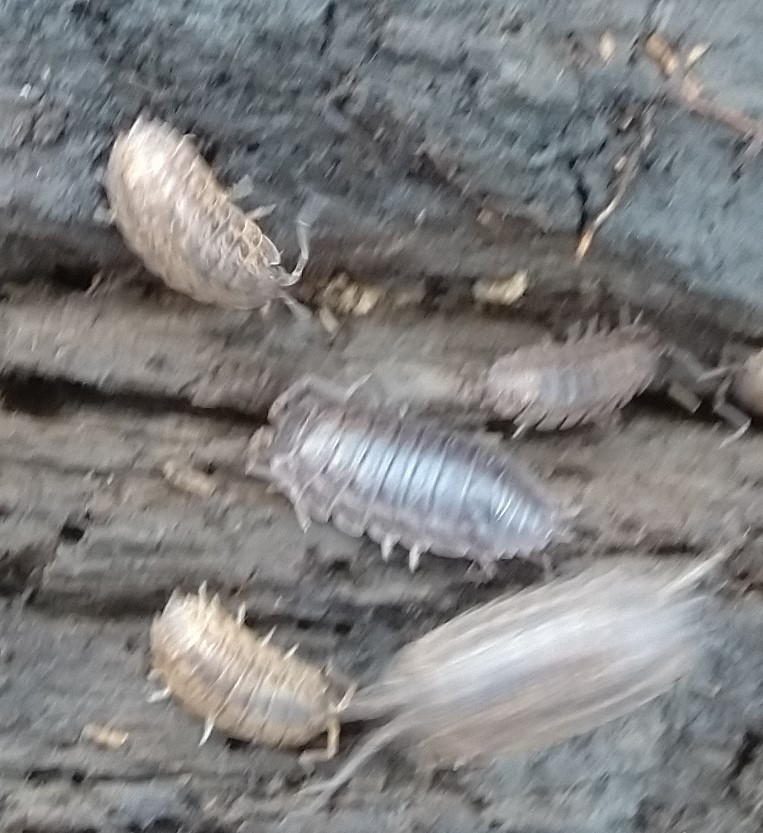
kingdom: Animalia
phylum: Arthropoda
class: Malacostraca
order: Isopoda
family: Trachelipodidae
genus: Trachelipus
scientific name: Trachelipus rathkii
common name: Isopod
